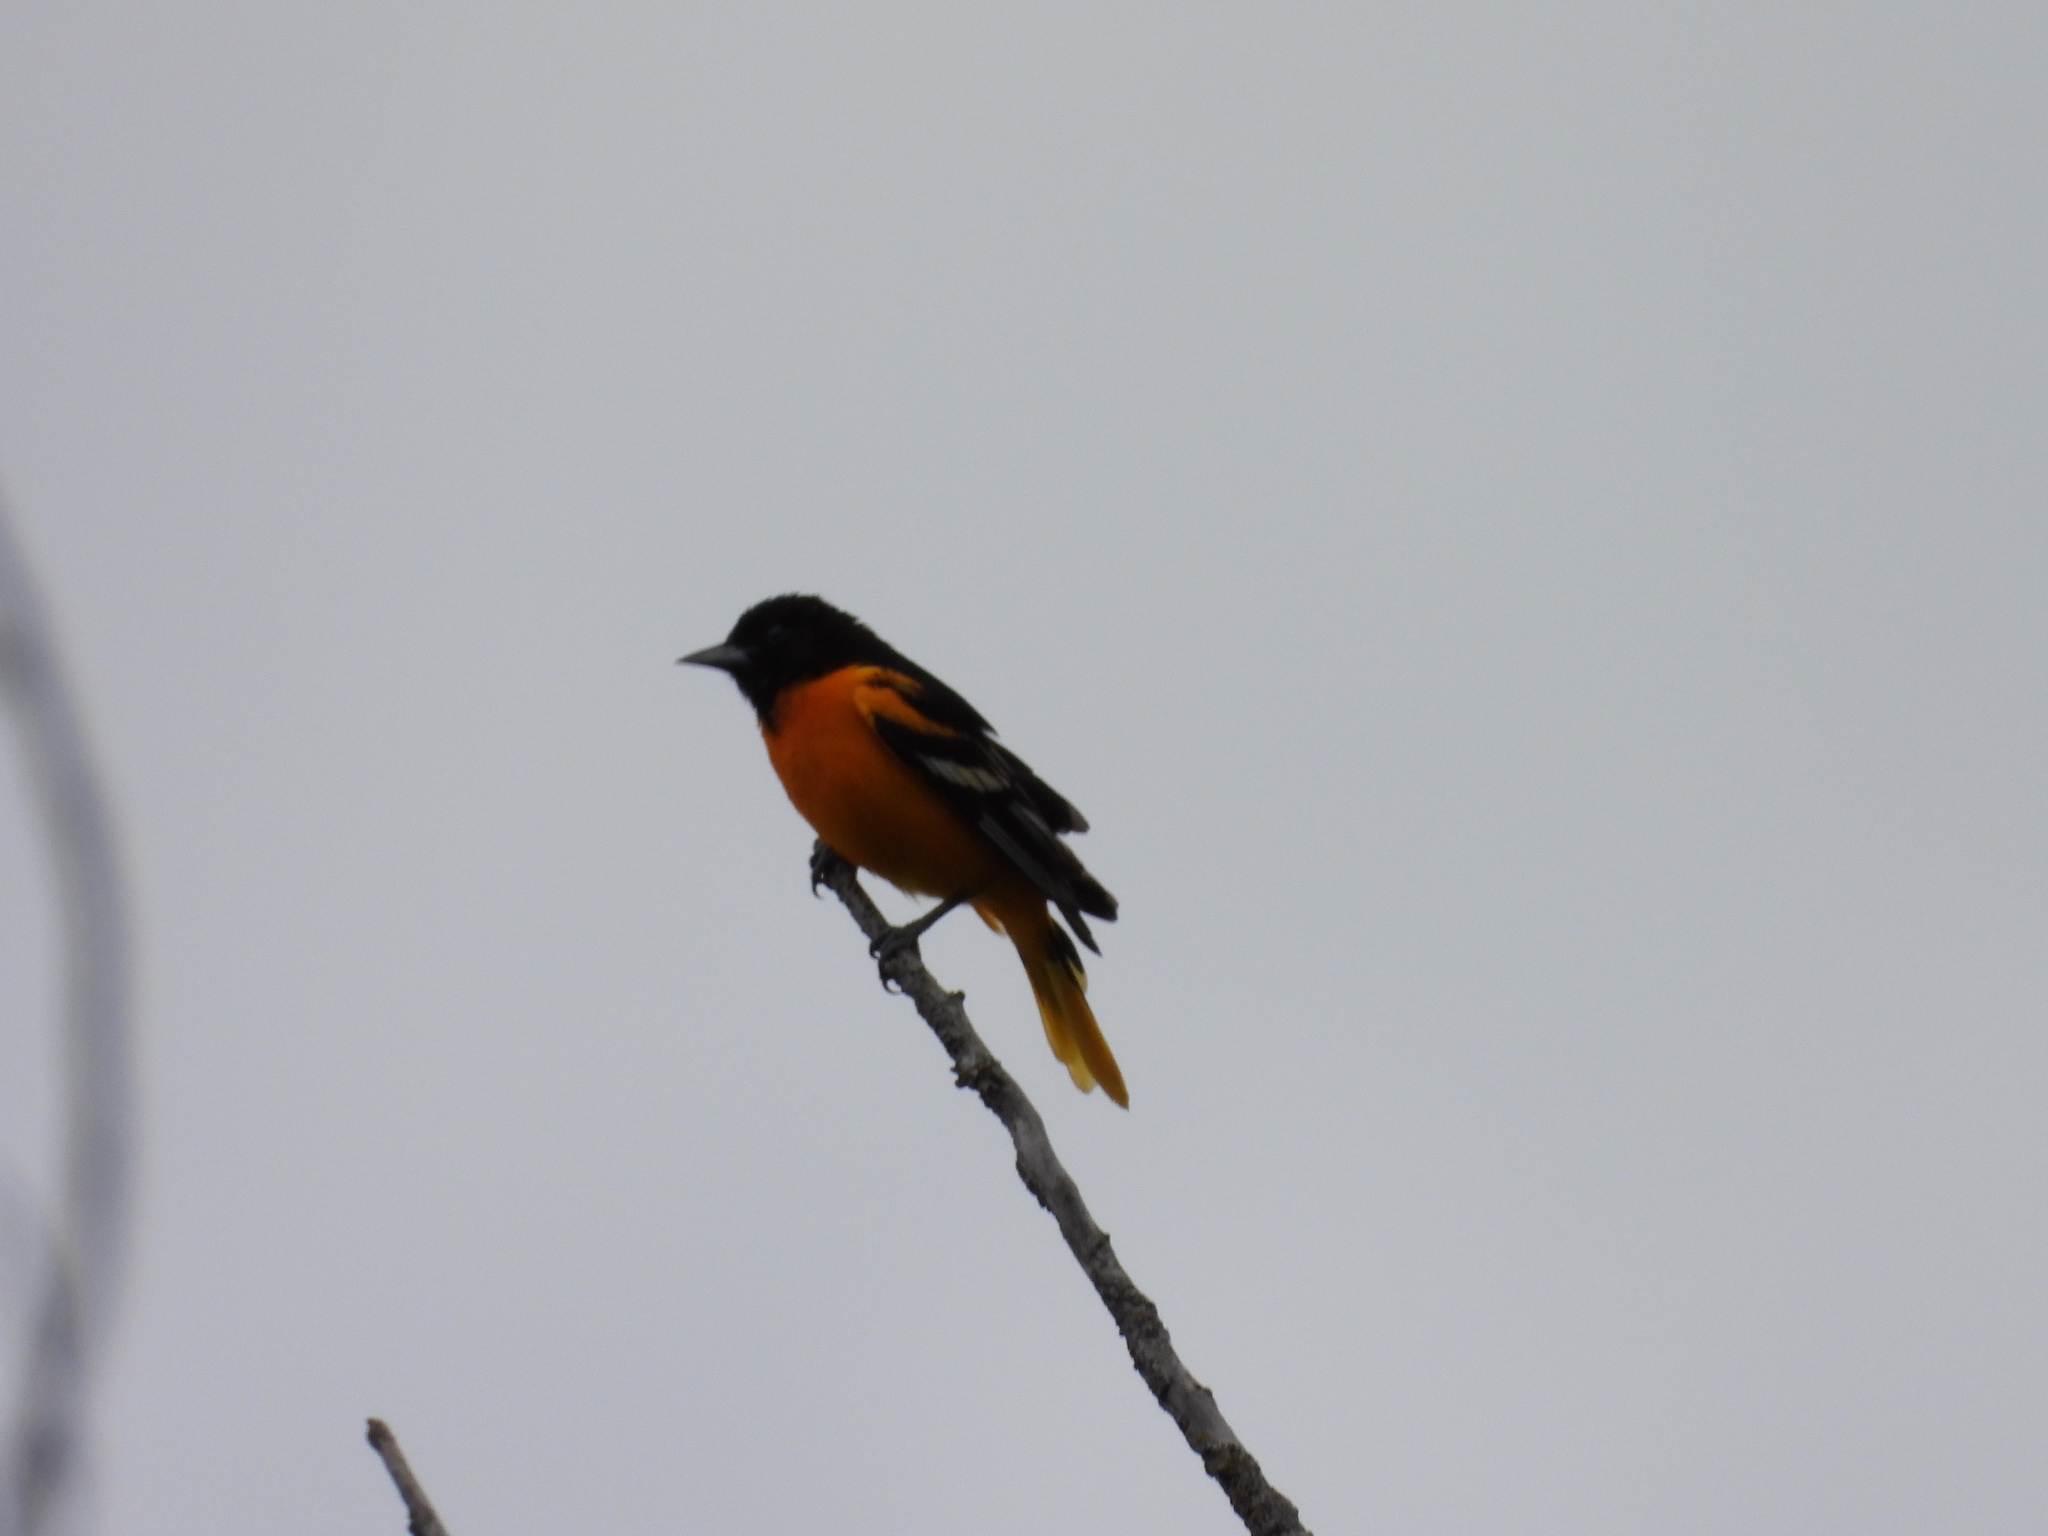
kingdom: Animalia
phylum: Chordata
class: Aves
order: Passeriformes
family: Icteridae
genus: Icterus
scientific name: Icterus galbula
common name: Baltimore oriole
